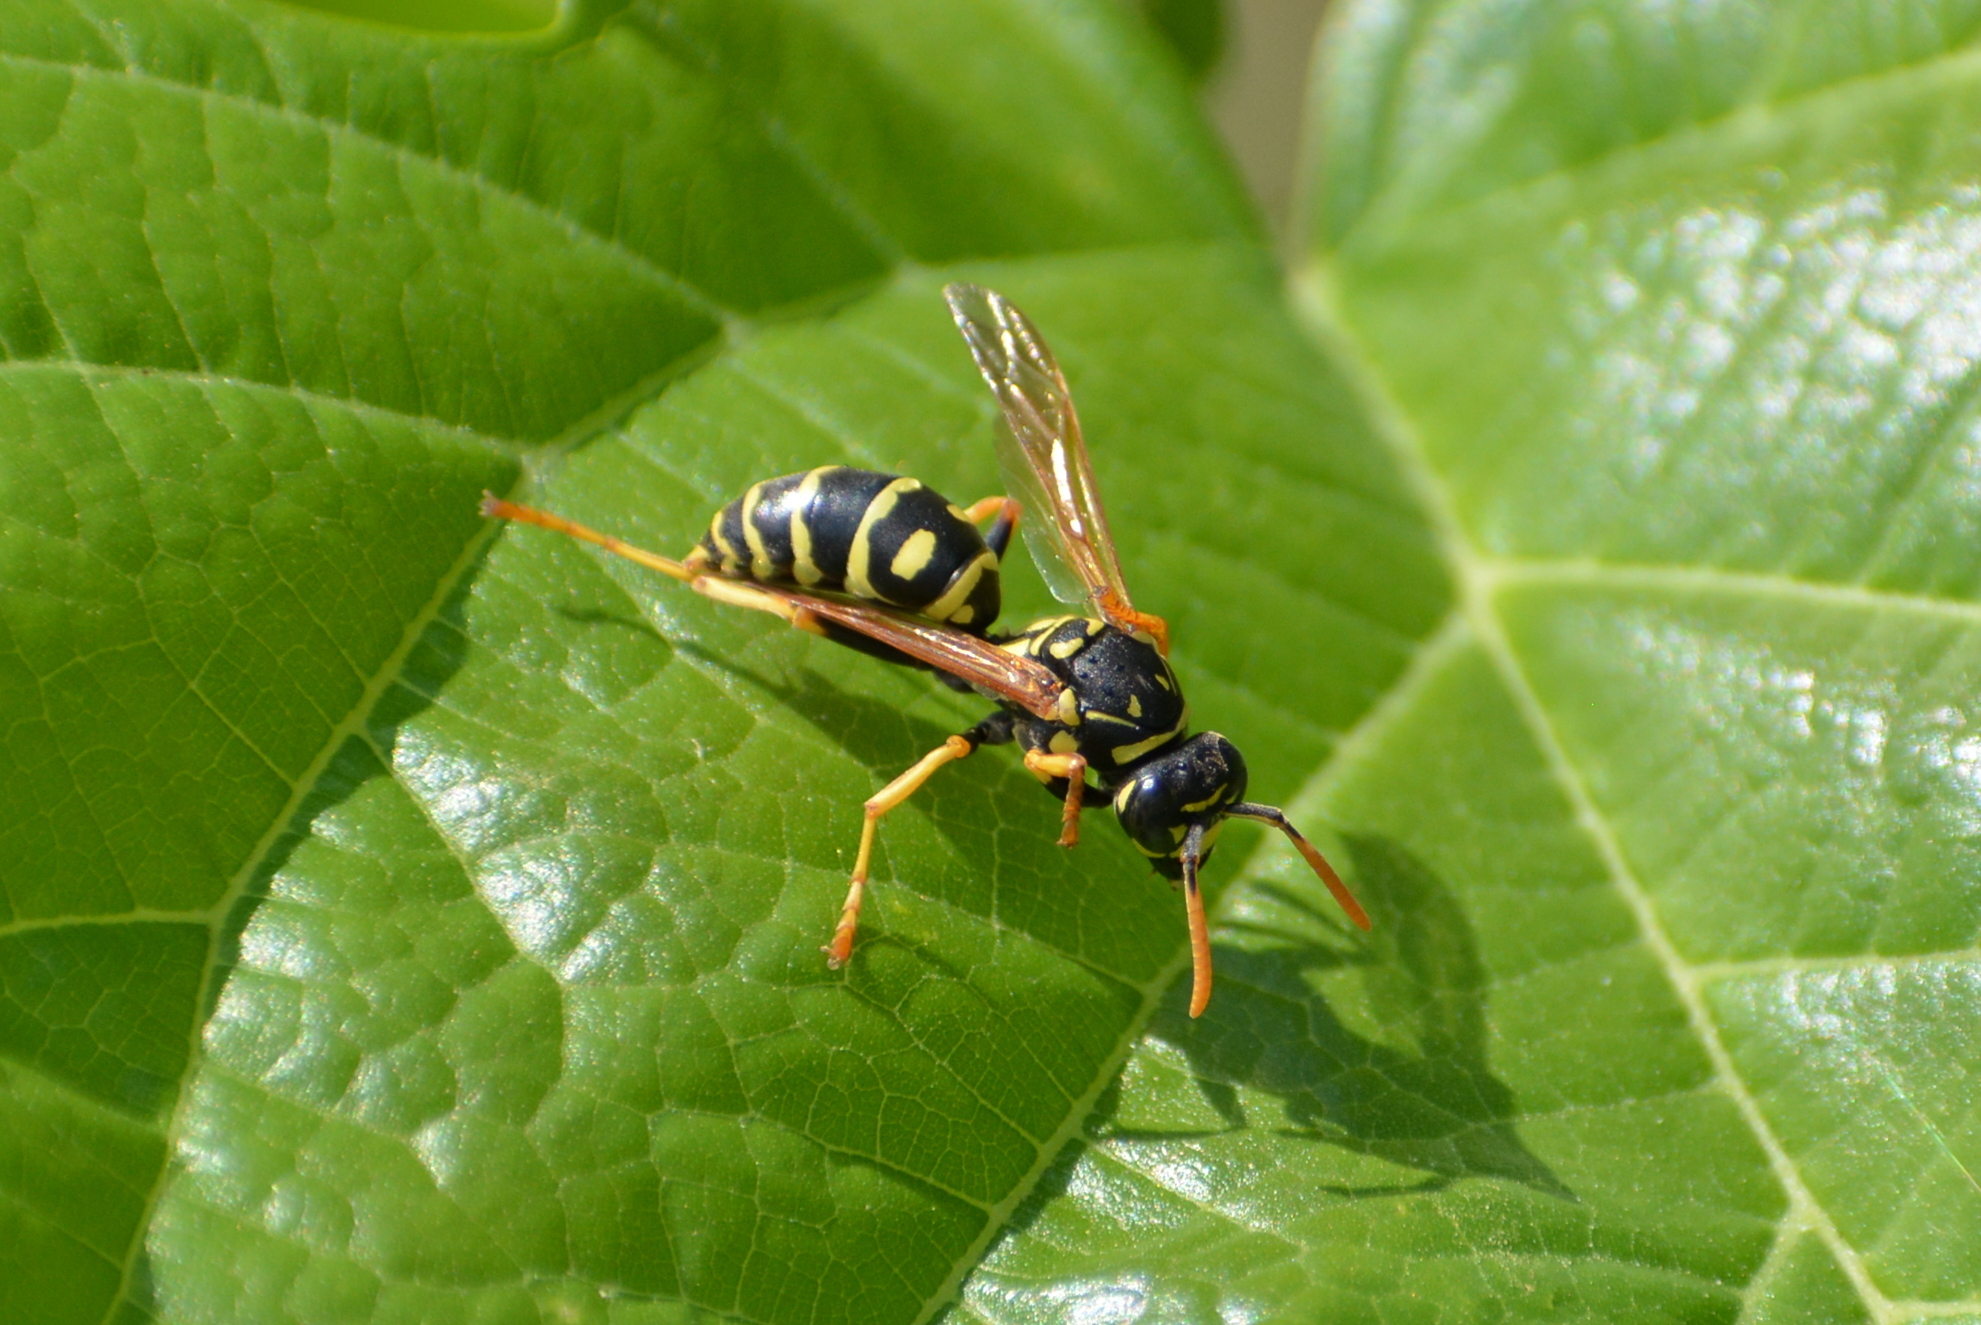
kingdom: Animalia
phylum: Arthropoda
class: Insecta
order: Hymenoptera
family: Eumenidae
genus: Polistes
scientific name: Polistes dominula
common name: Paper wasp
